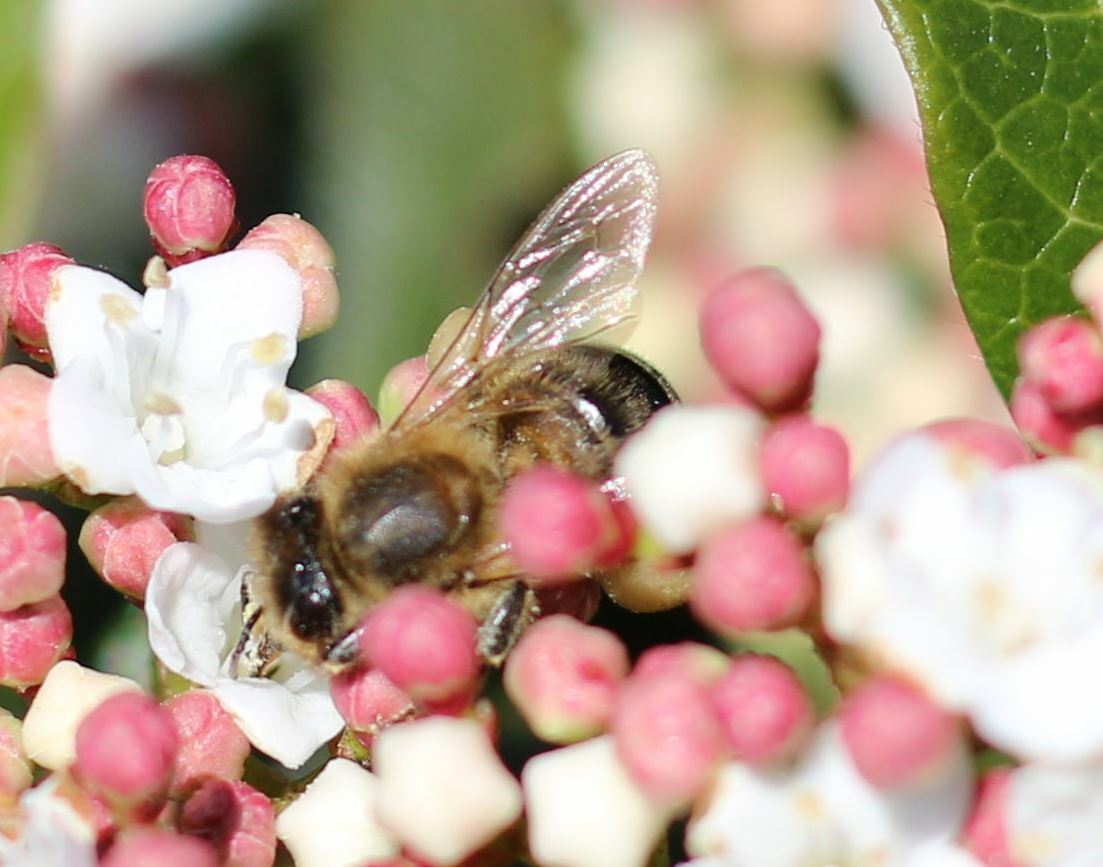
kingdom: Animalia
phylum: Arthropoda
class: Insecta
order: Hymenoptera
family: Apidae
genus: Apis
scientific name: Apis mellifera
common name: Honey bee
